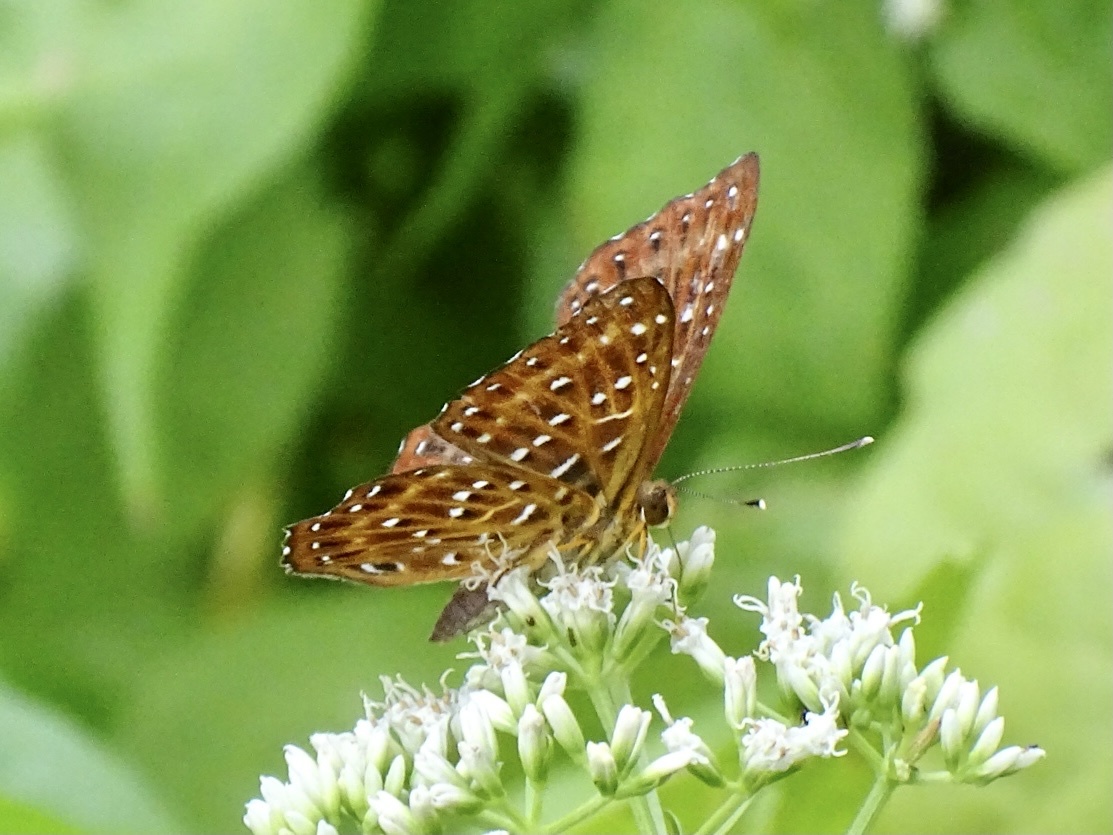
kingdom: Animalia
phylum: Arthropoda
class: Insecta
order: Lepidoptera
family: Riodinidae
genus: Zemeros
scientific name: Zemeros flegyas
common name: Punchinello
